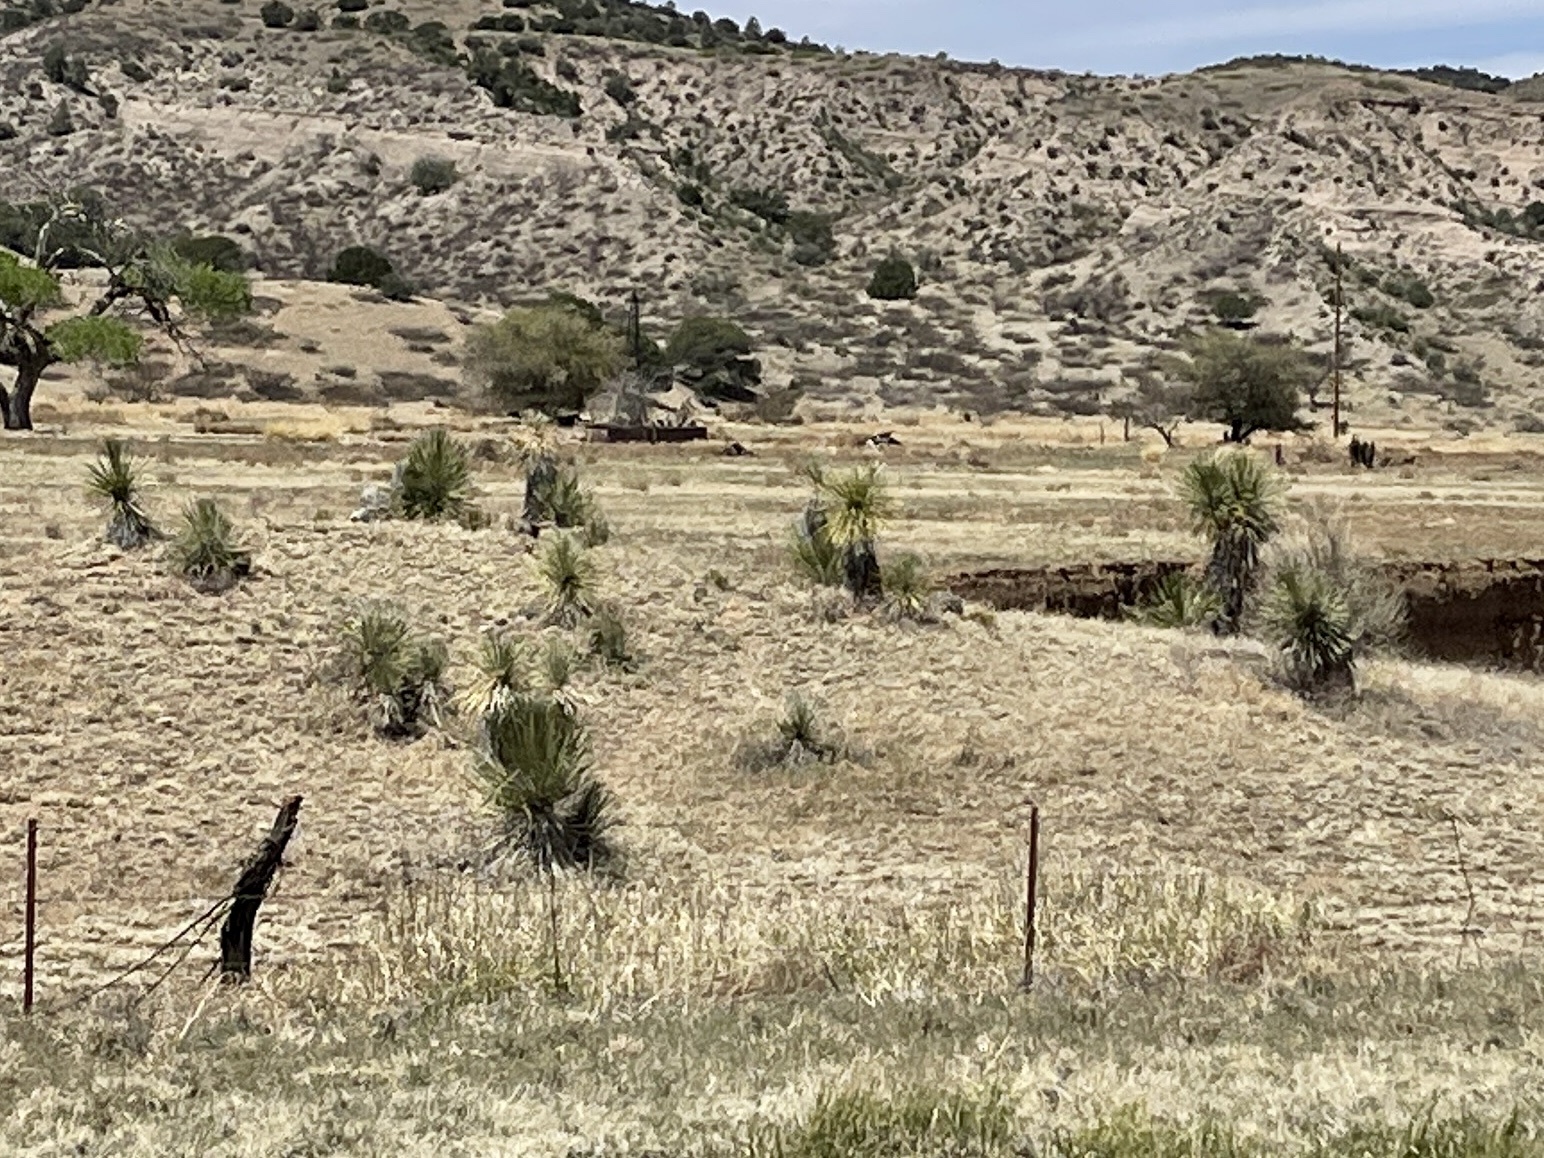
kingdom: Plantae
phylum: Tracheophyta
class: Liliopsida
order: Asparagales
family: Asparagaceae
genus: Yucca
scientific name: Yucca elata
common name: Palmella
